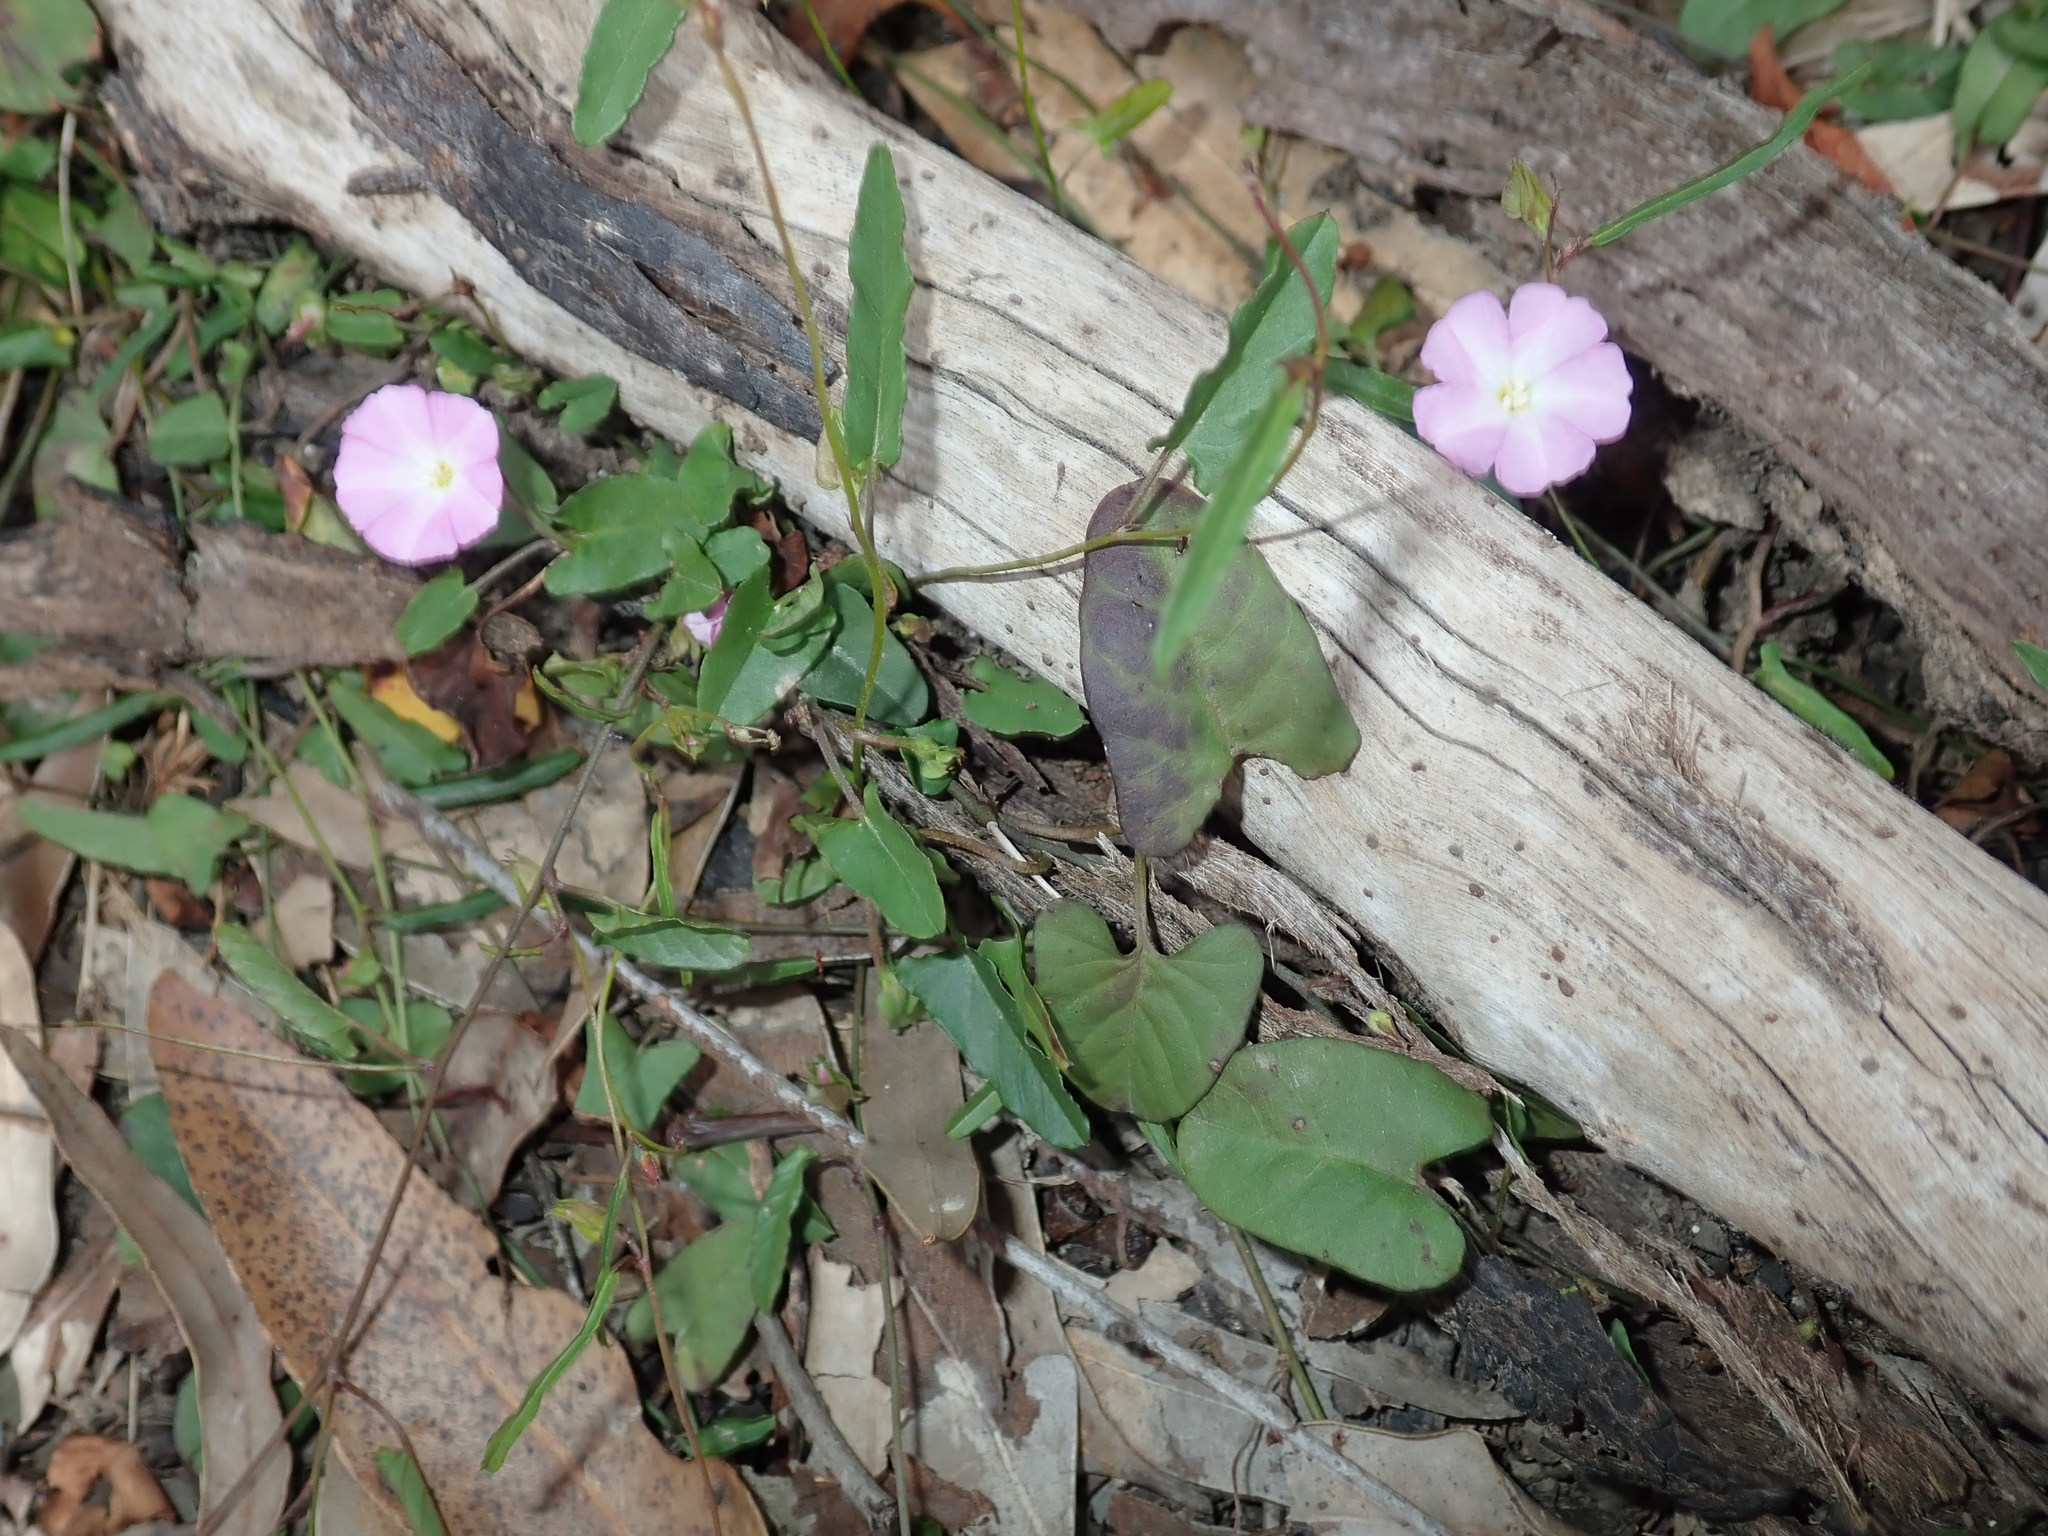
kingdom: Plantae
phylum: Tracheophyta
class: Magnoliopsida
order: Solanales
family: Convolvulaceae
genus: Polymeria
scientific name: Polymeria calycina
